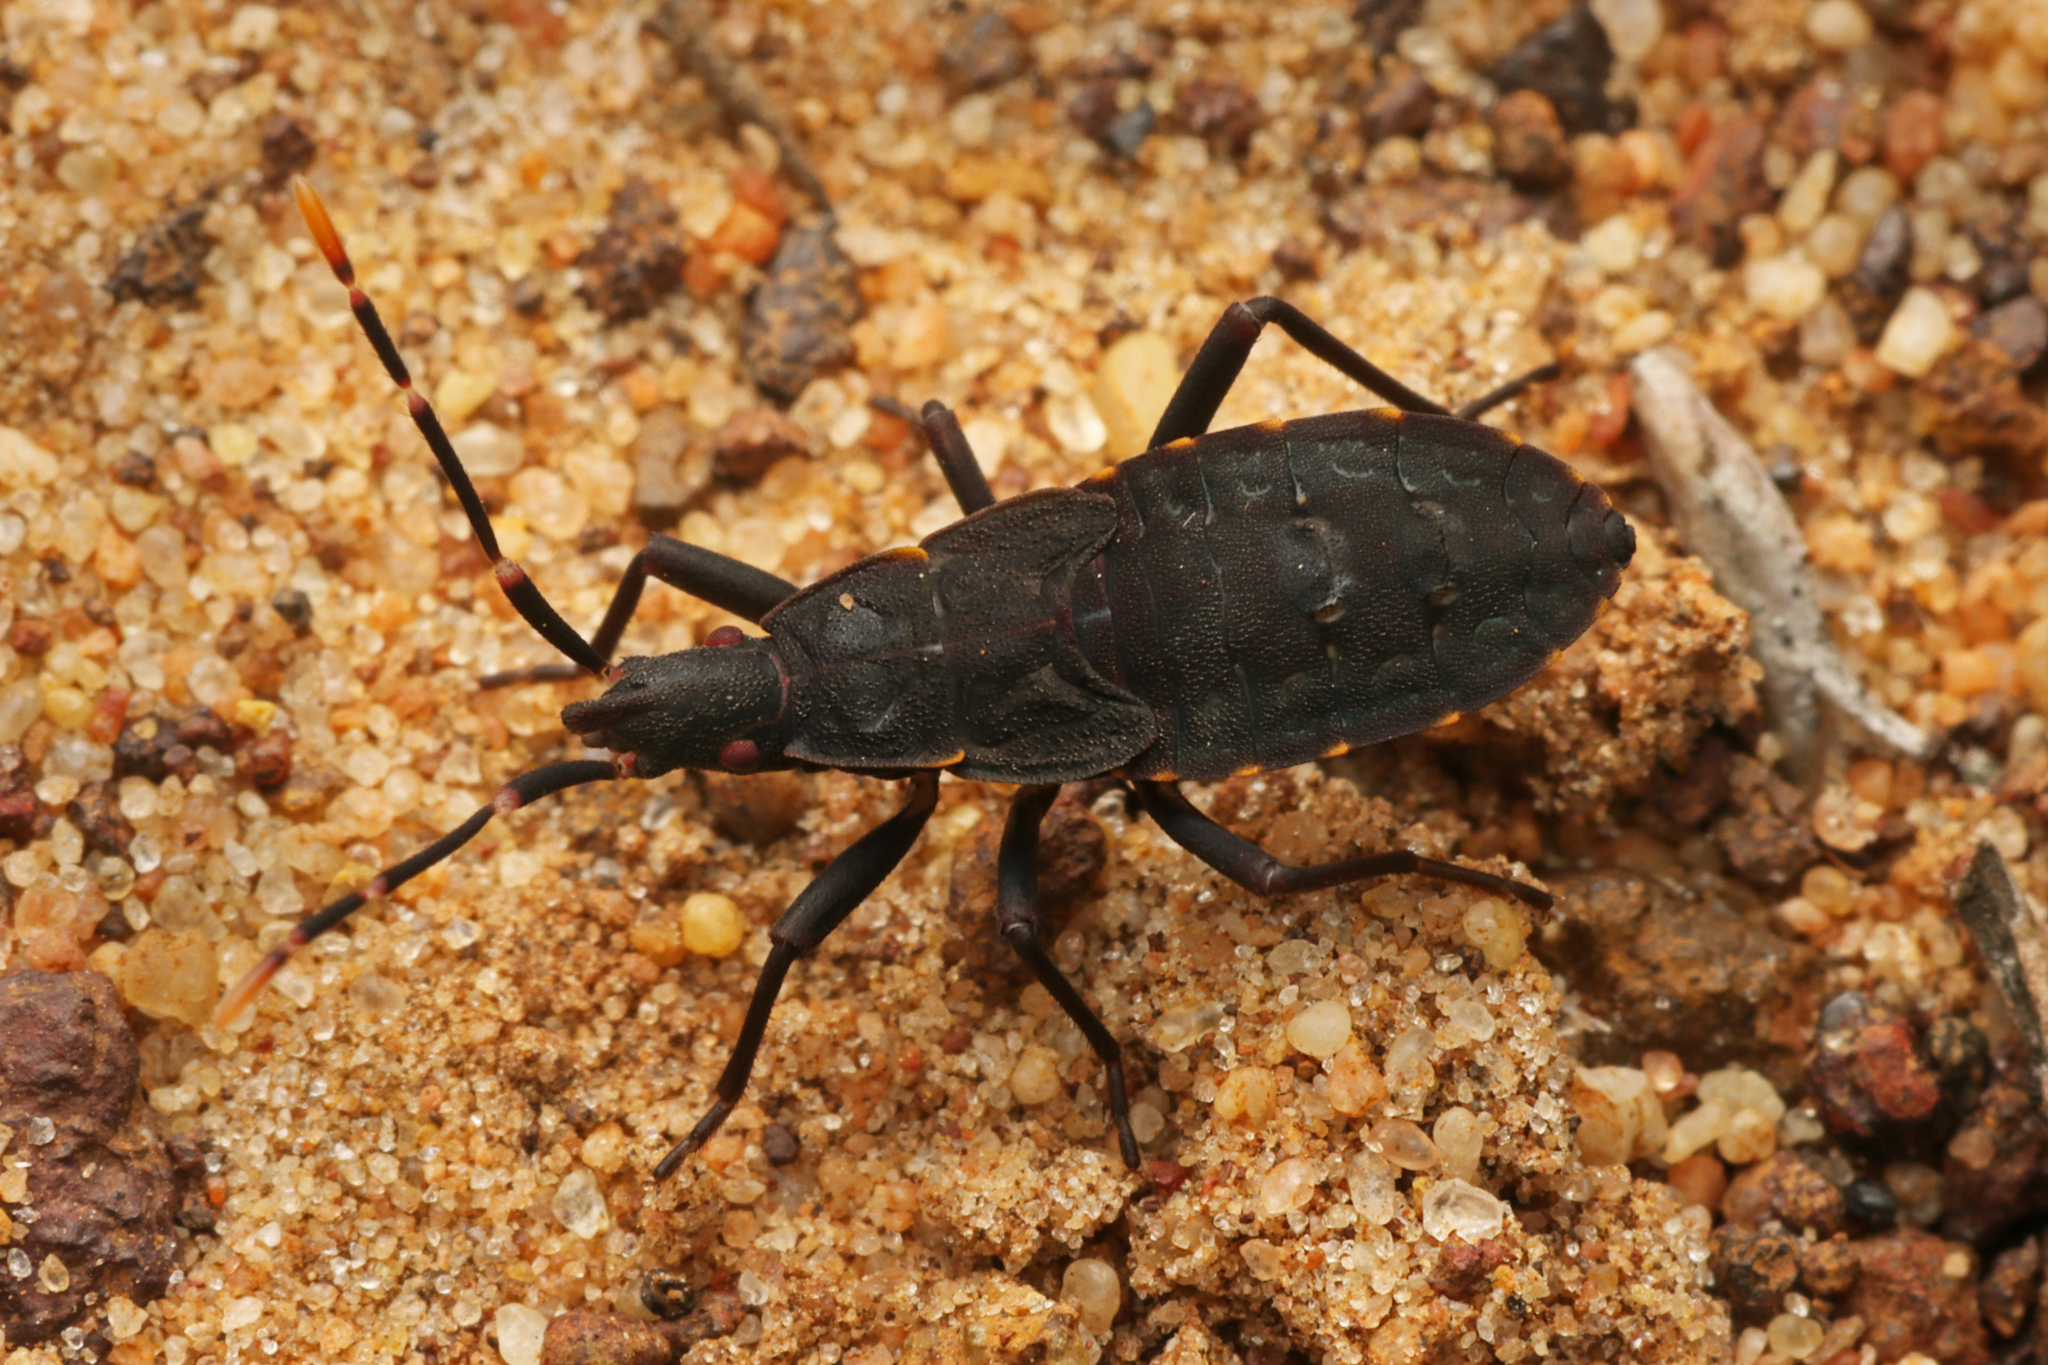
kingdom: Animalia
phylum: Arthropoda
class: Insecta
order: Hemiptera
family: Hyocephalidae
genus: Hyocephalus
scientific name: Hyocephalus aprugnus
